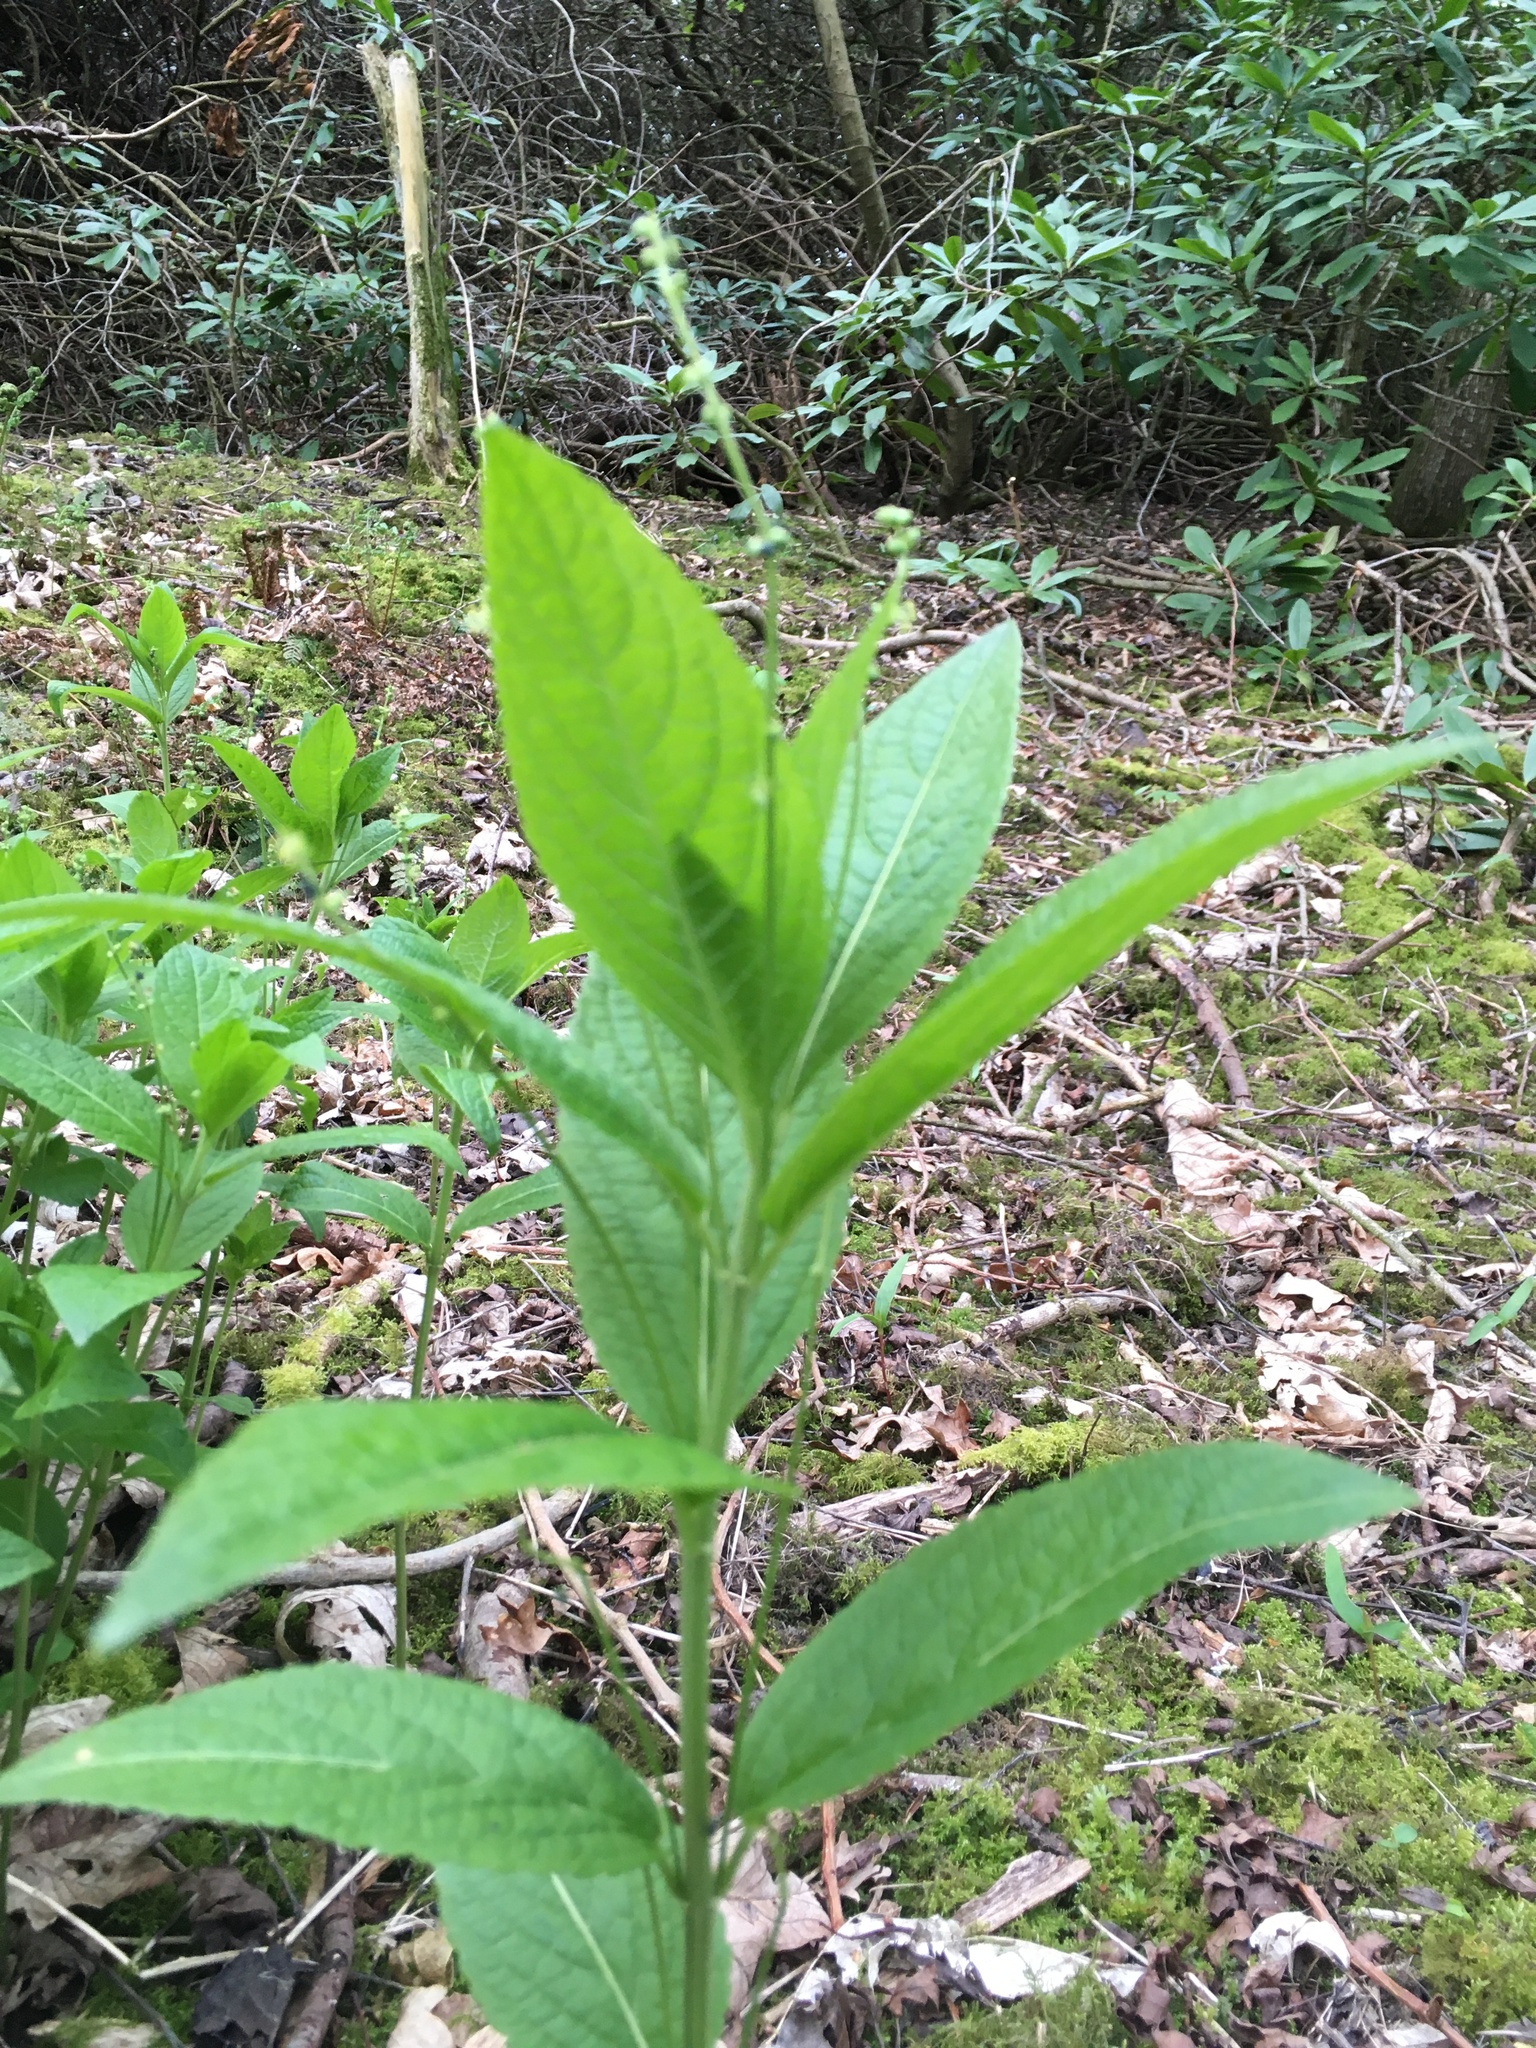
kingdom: Plantae
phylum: Tracheophyta
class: Magnoliopsida
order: Malpighiales
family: Euphorbiaceae
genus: Mercurialis
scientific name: Mercurialis perennis
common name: Dog mercury
